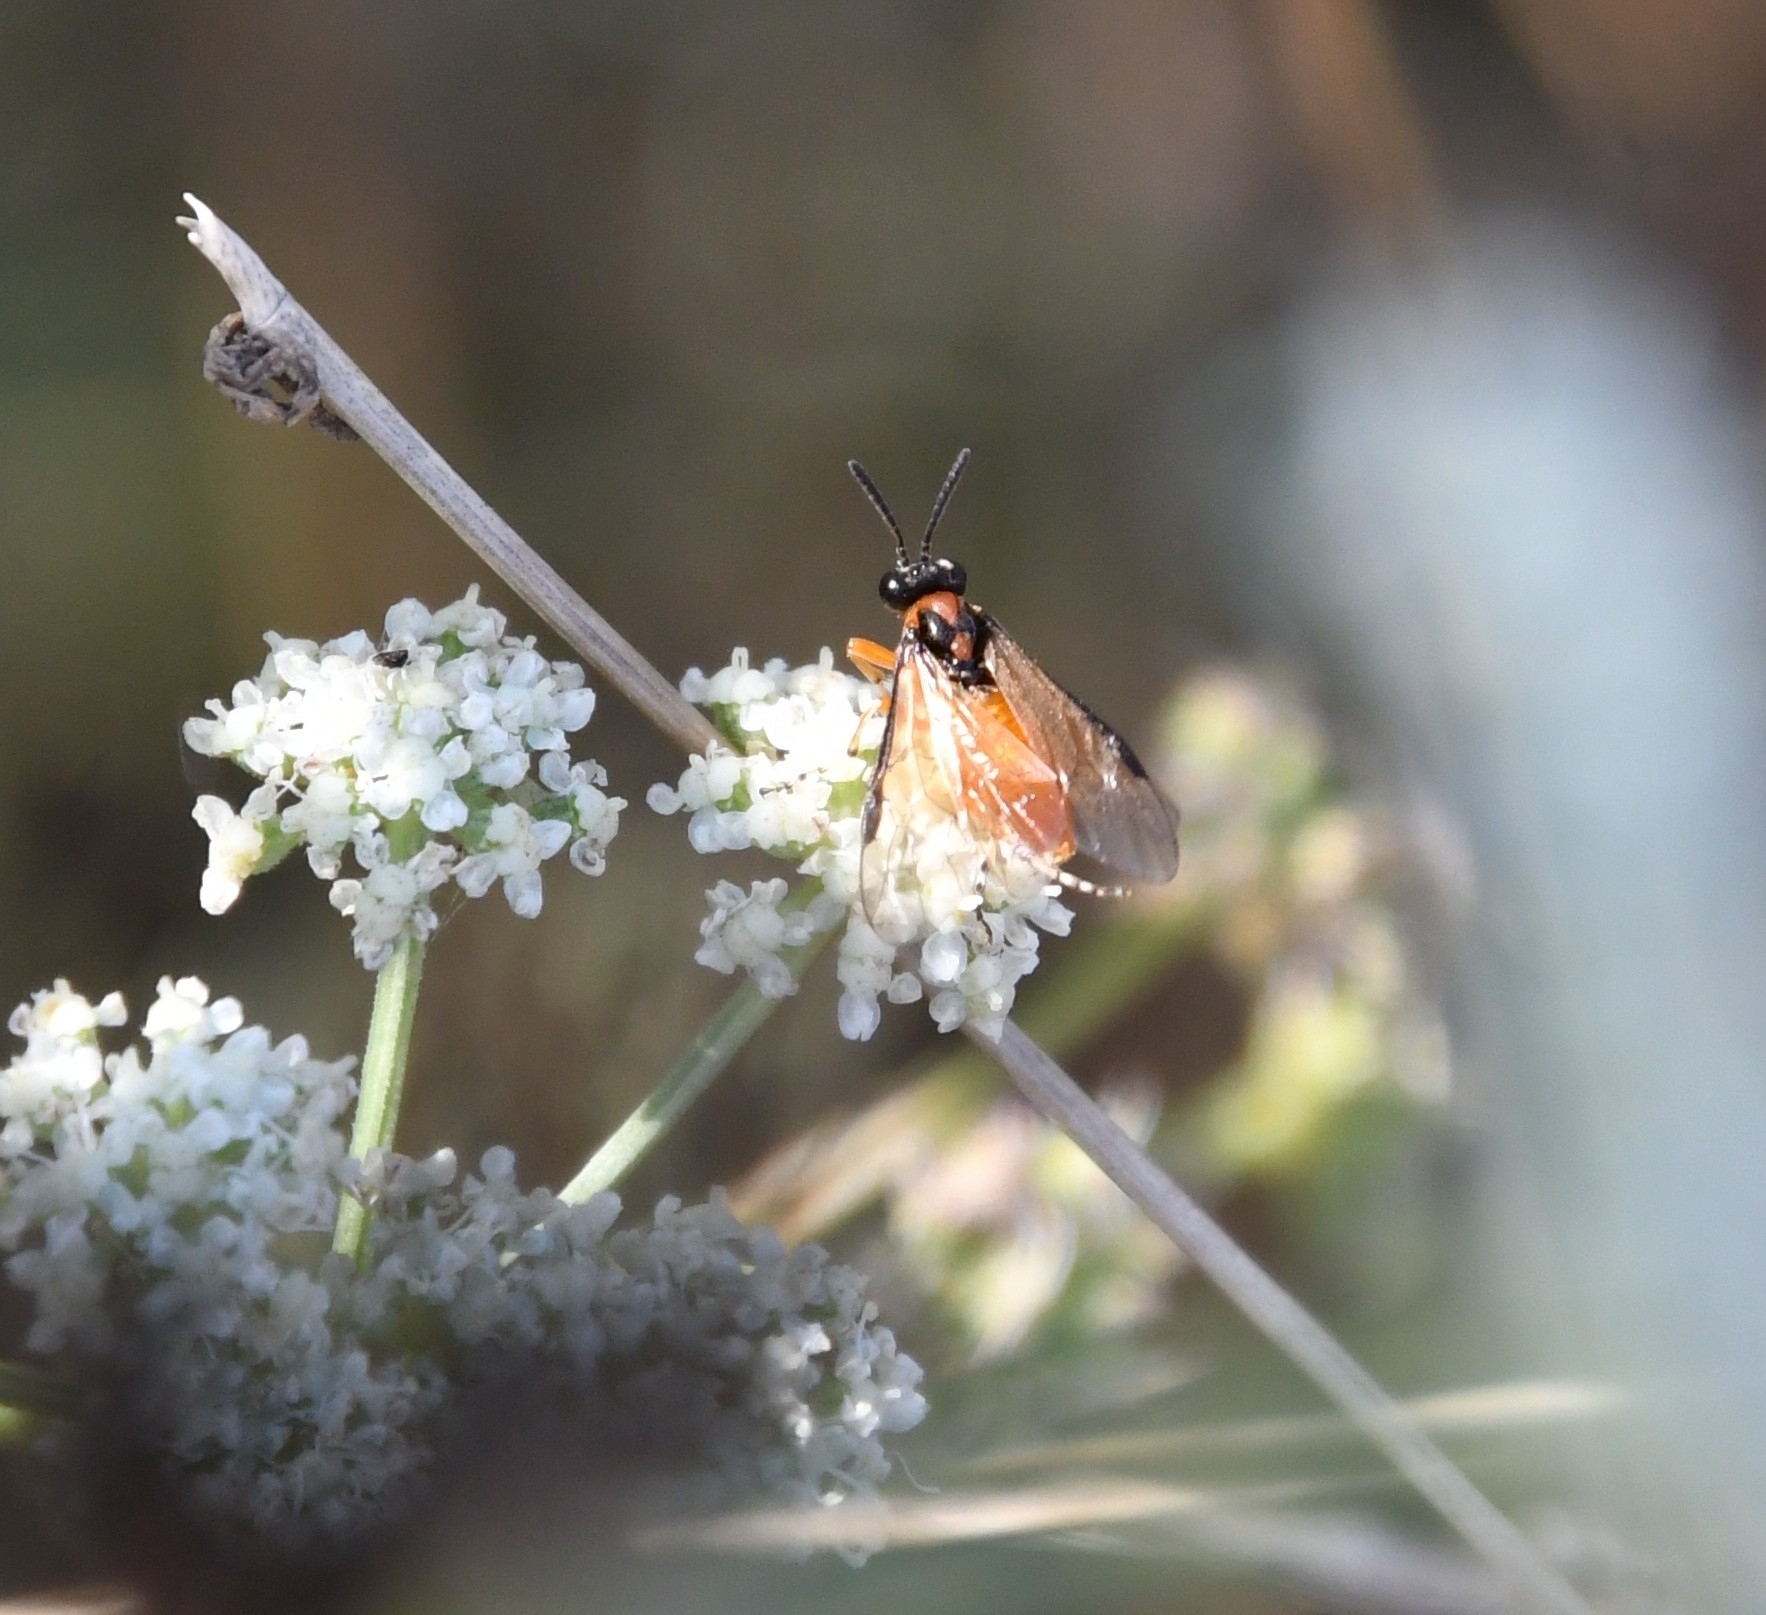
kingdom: Animalia
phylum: Arthropoda
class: Insecta
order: Hymenoptera
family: Tenthredinidae
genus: Athalia
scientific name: Athalia rosae
